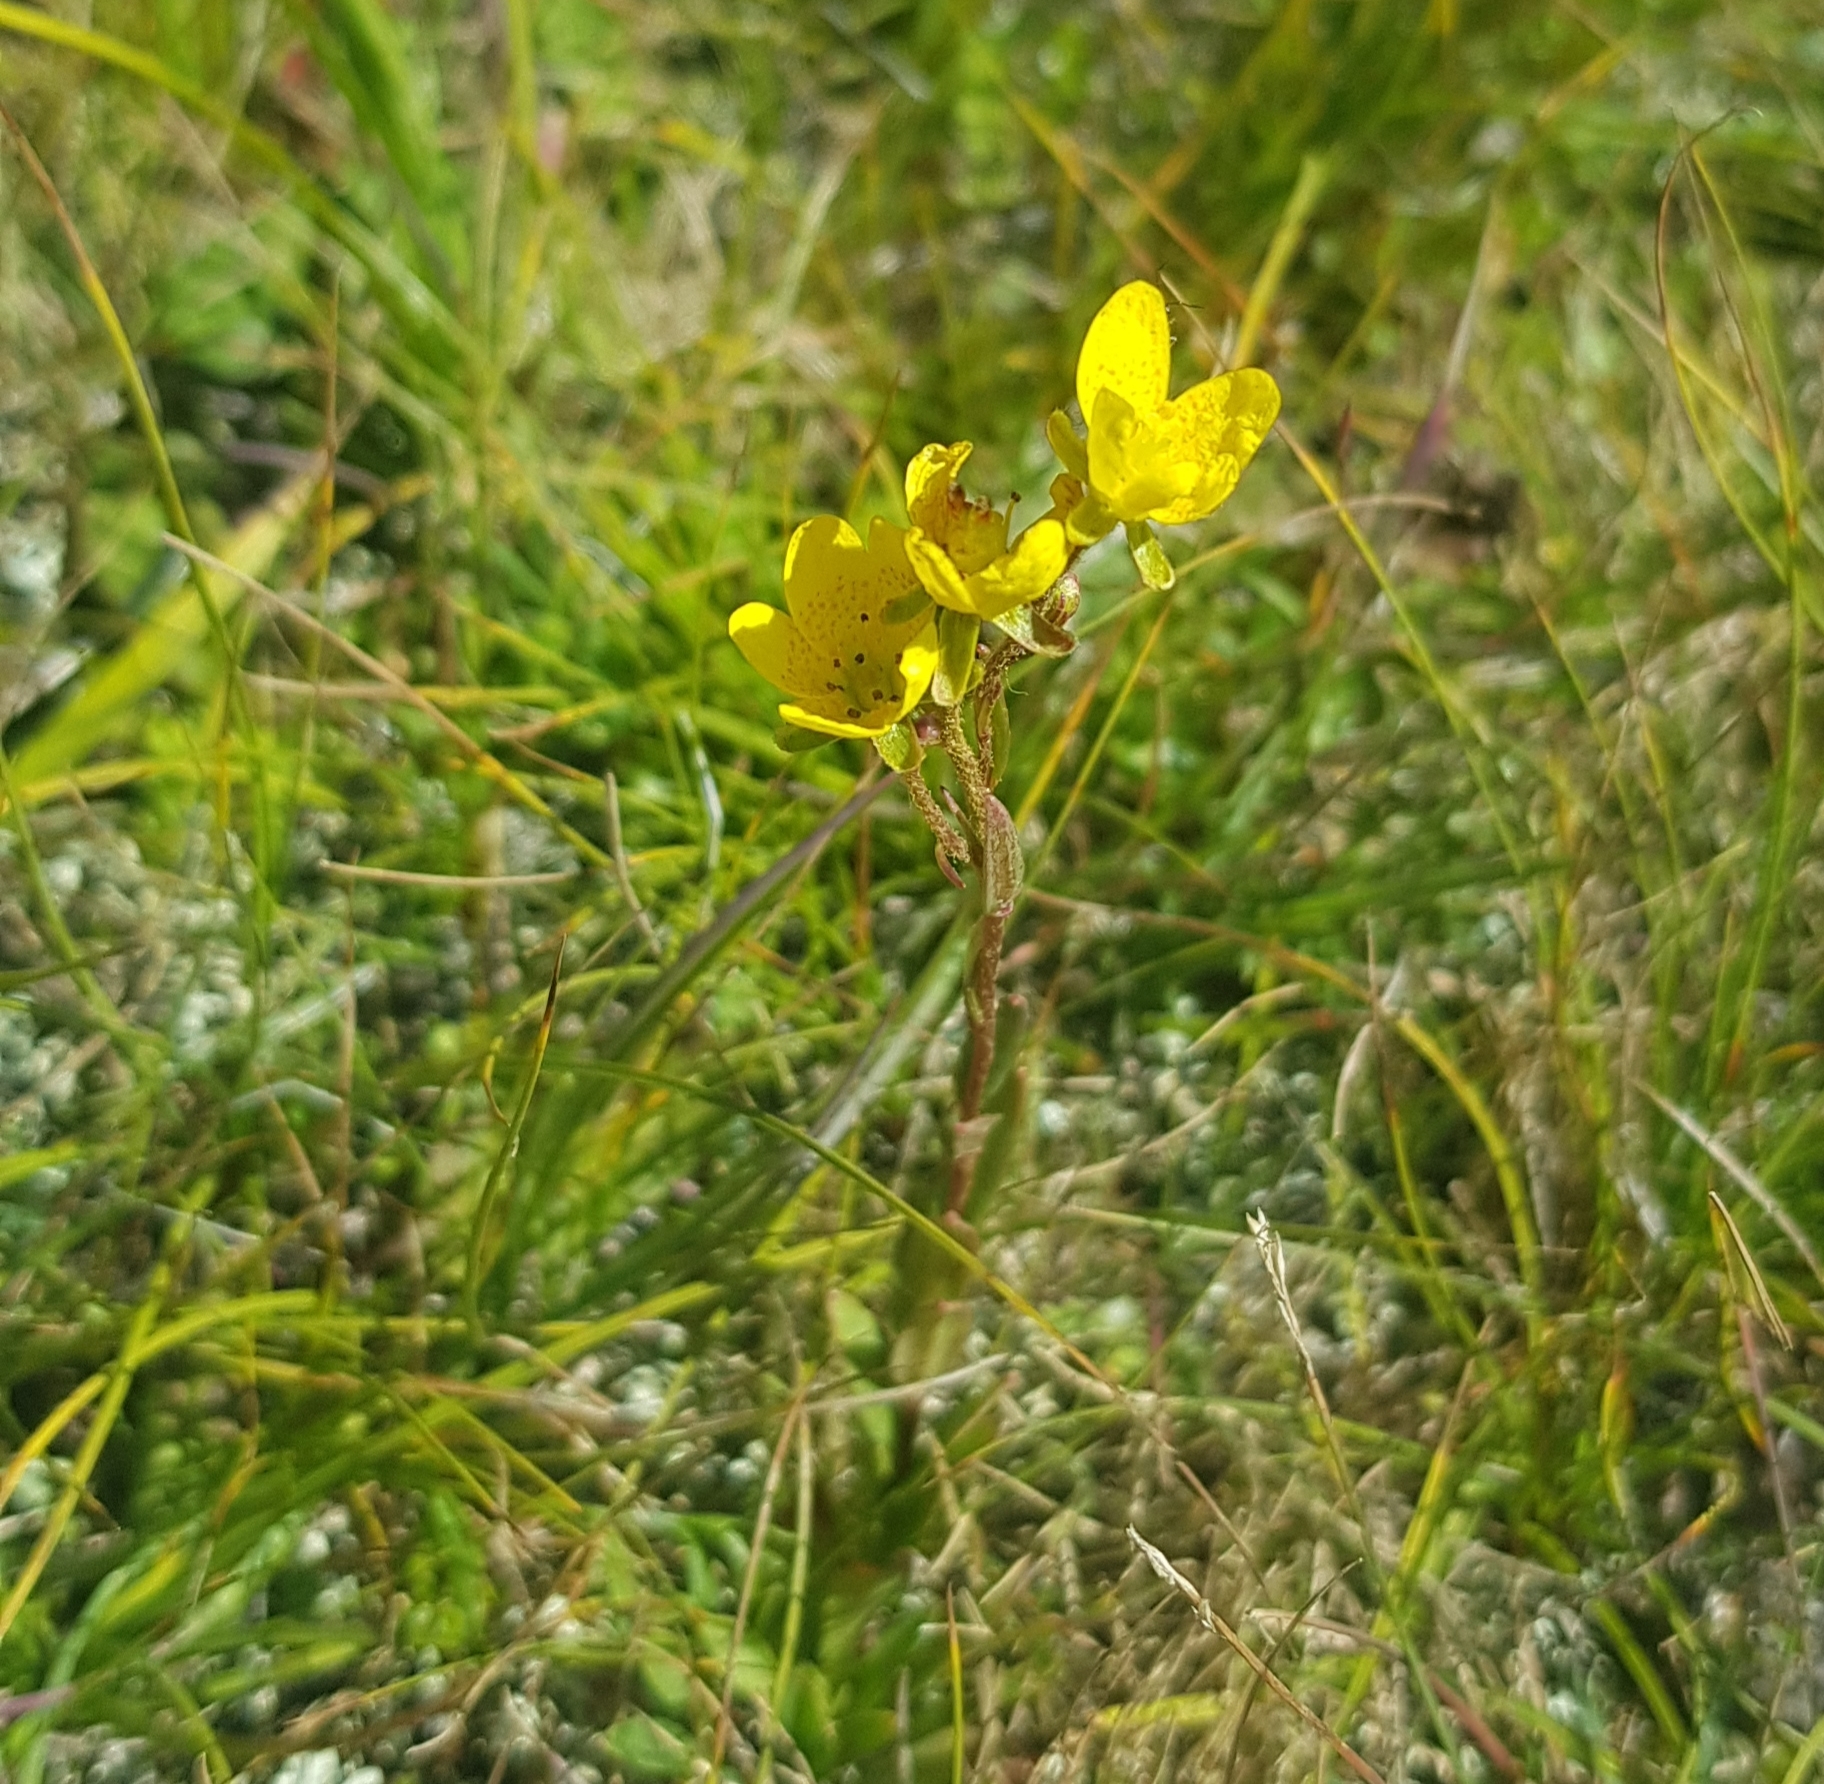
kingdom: Plantae
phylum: Tracheophyta
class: Magnoliopsida
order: Saxifragales
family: Saxifragaceae
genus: Saxifraga
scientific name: Saxifraga hirculus
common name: Yellow marsh saxifrage
